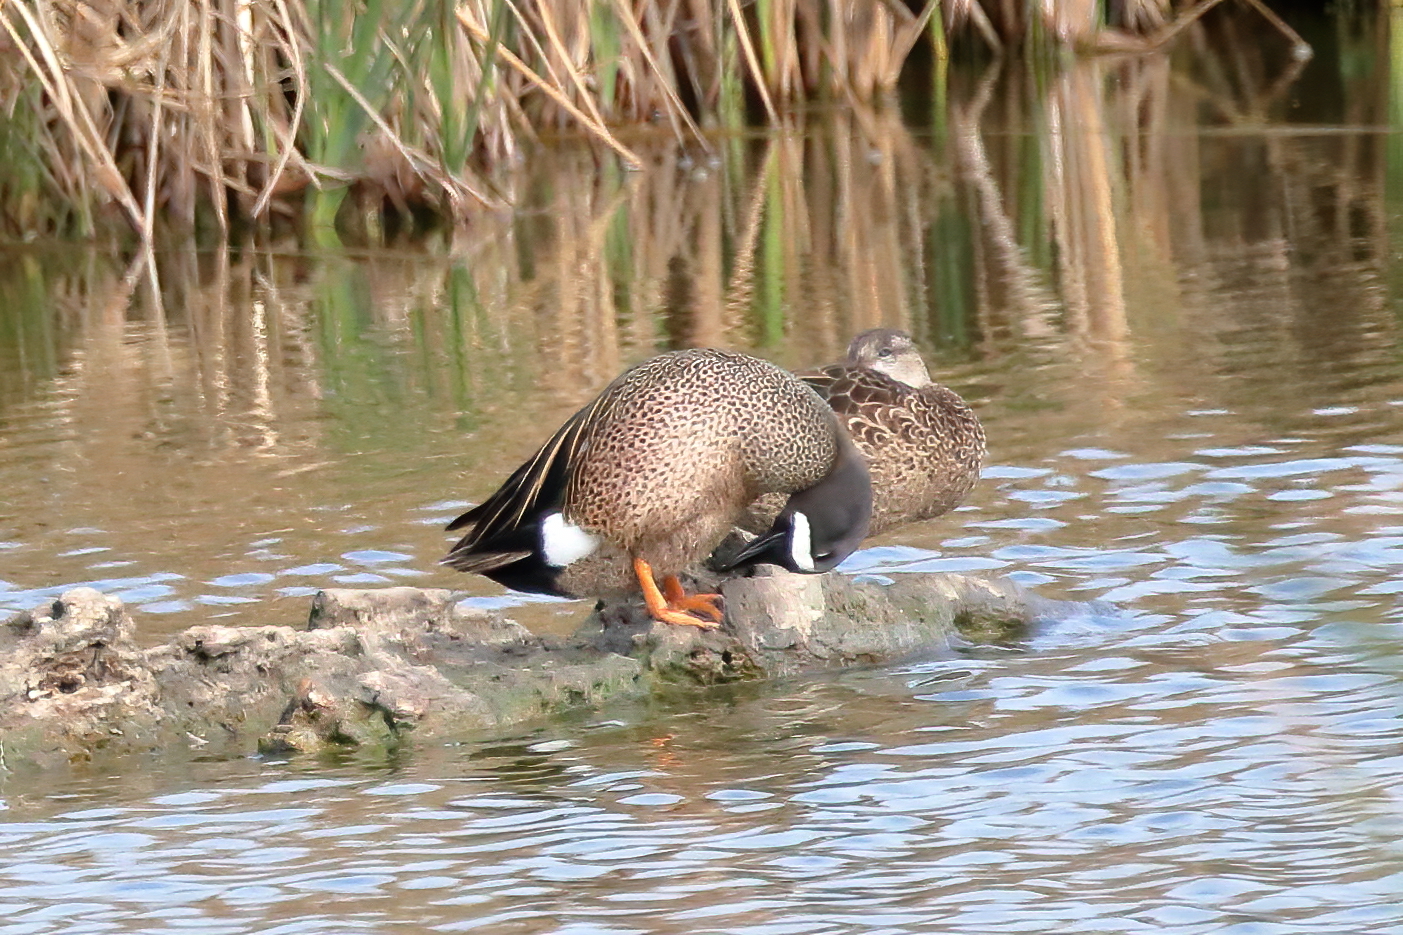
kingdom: Animalia
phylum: Chordata
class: Aves
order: Anseriformes
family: Anatidae
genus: Spatula
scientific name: Spatula discors
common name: Blue-winged teal
